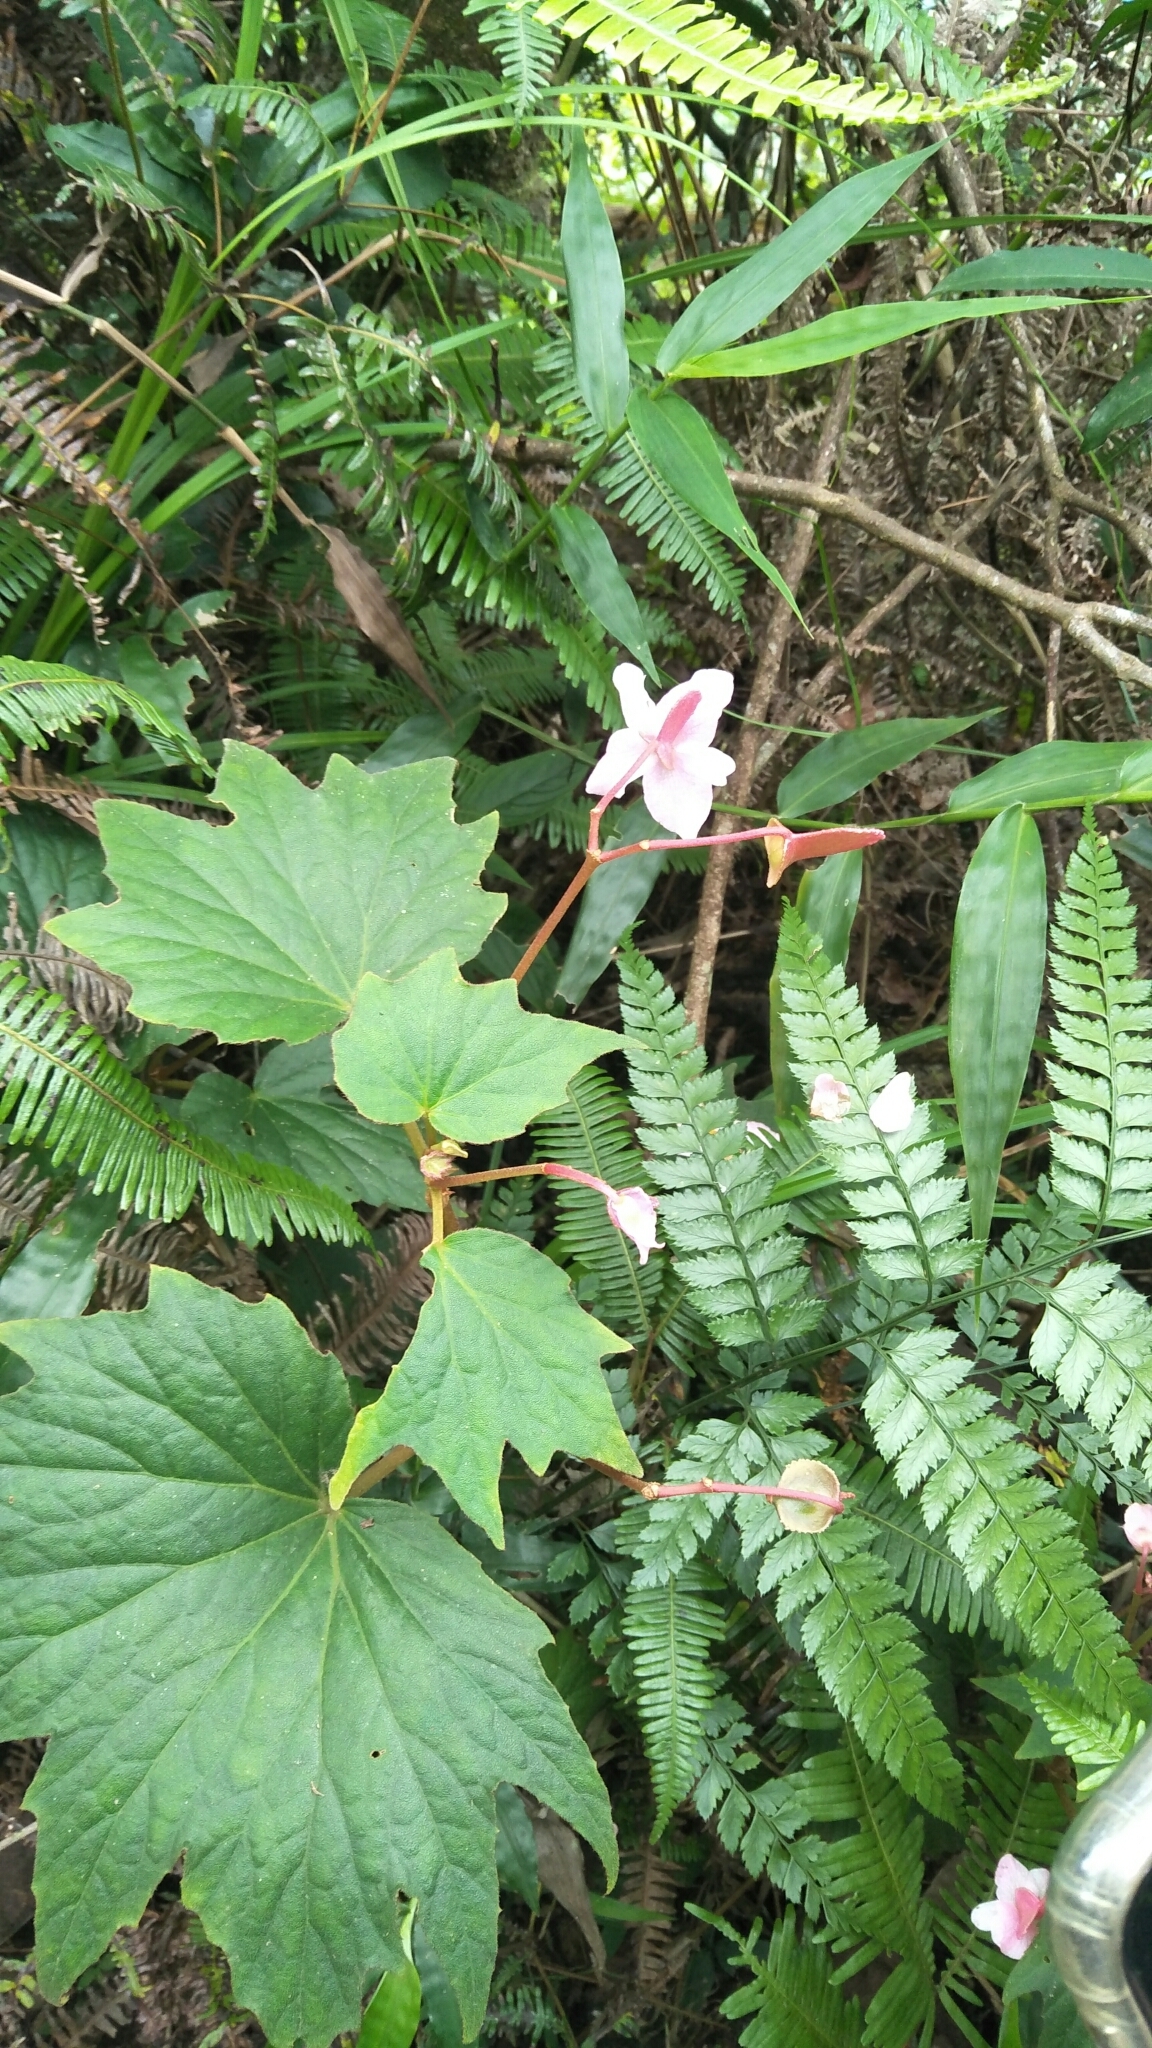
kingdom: Plantae
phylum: Tracheophyta
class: Magnoliopsida
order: Cucurbitales
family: Begoniaceae
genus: Begonia
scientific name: Begonia palmata
